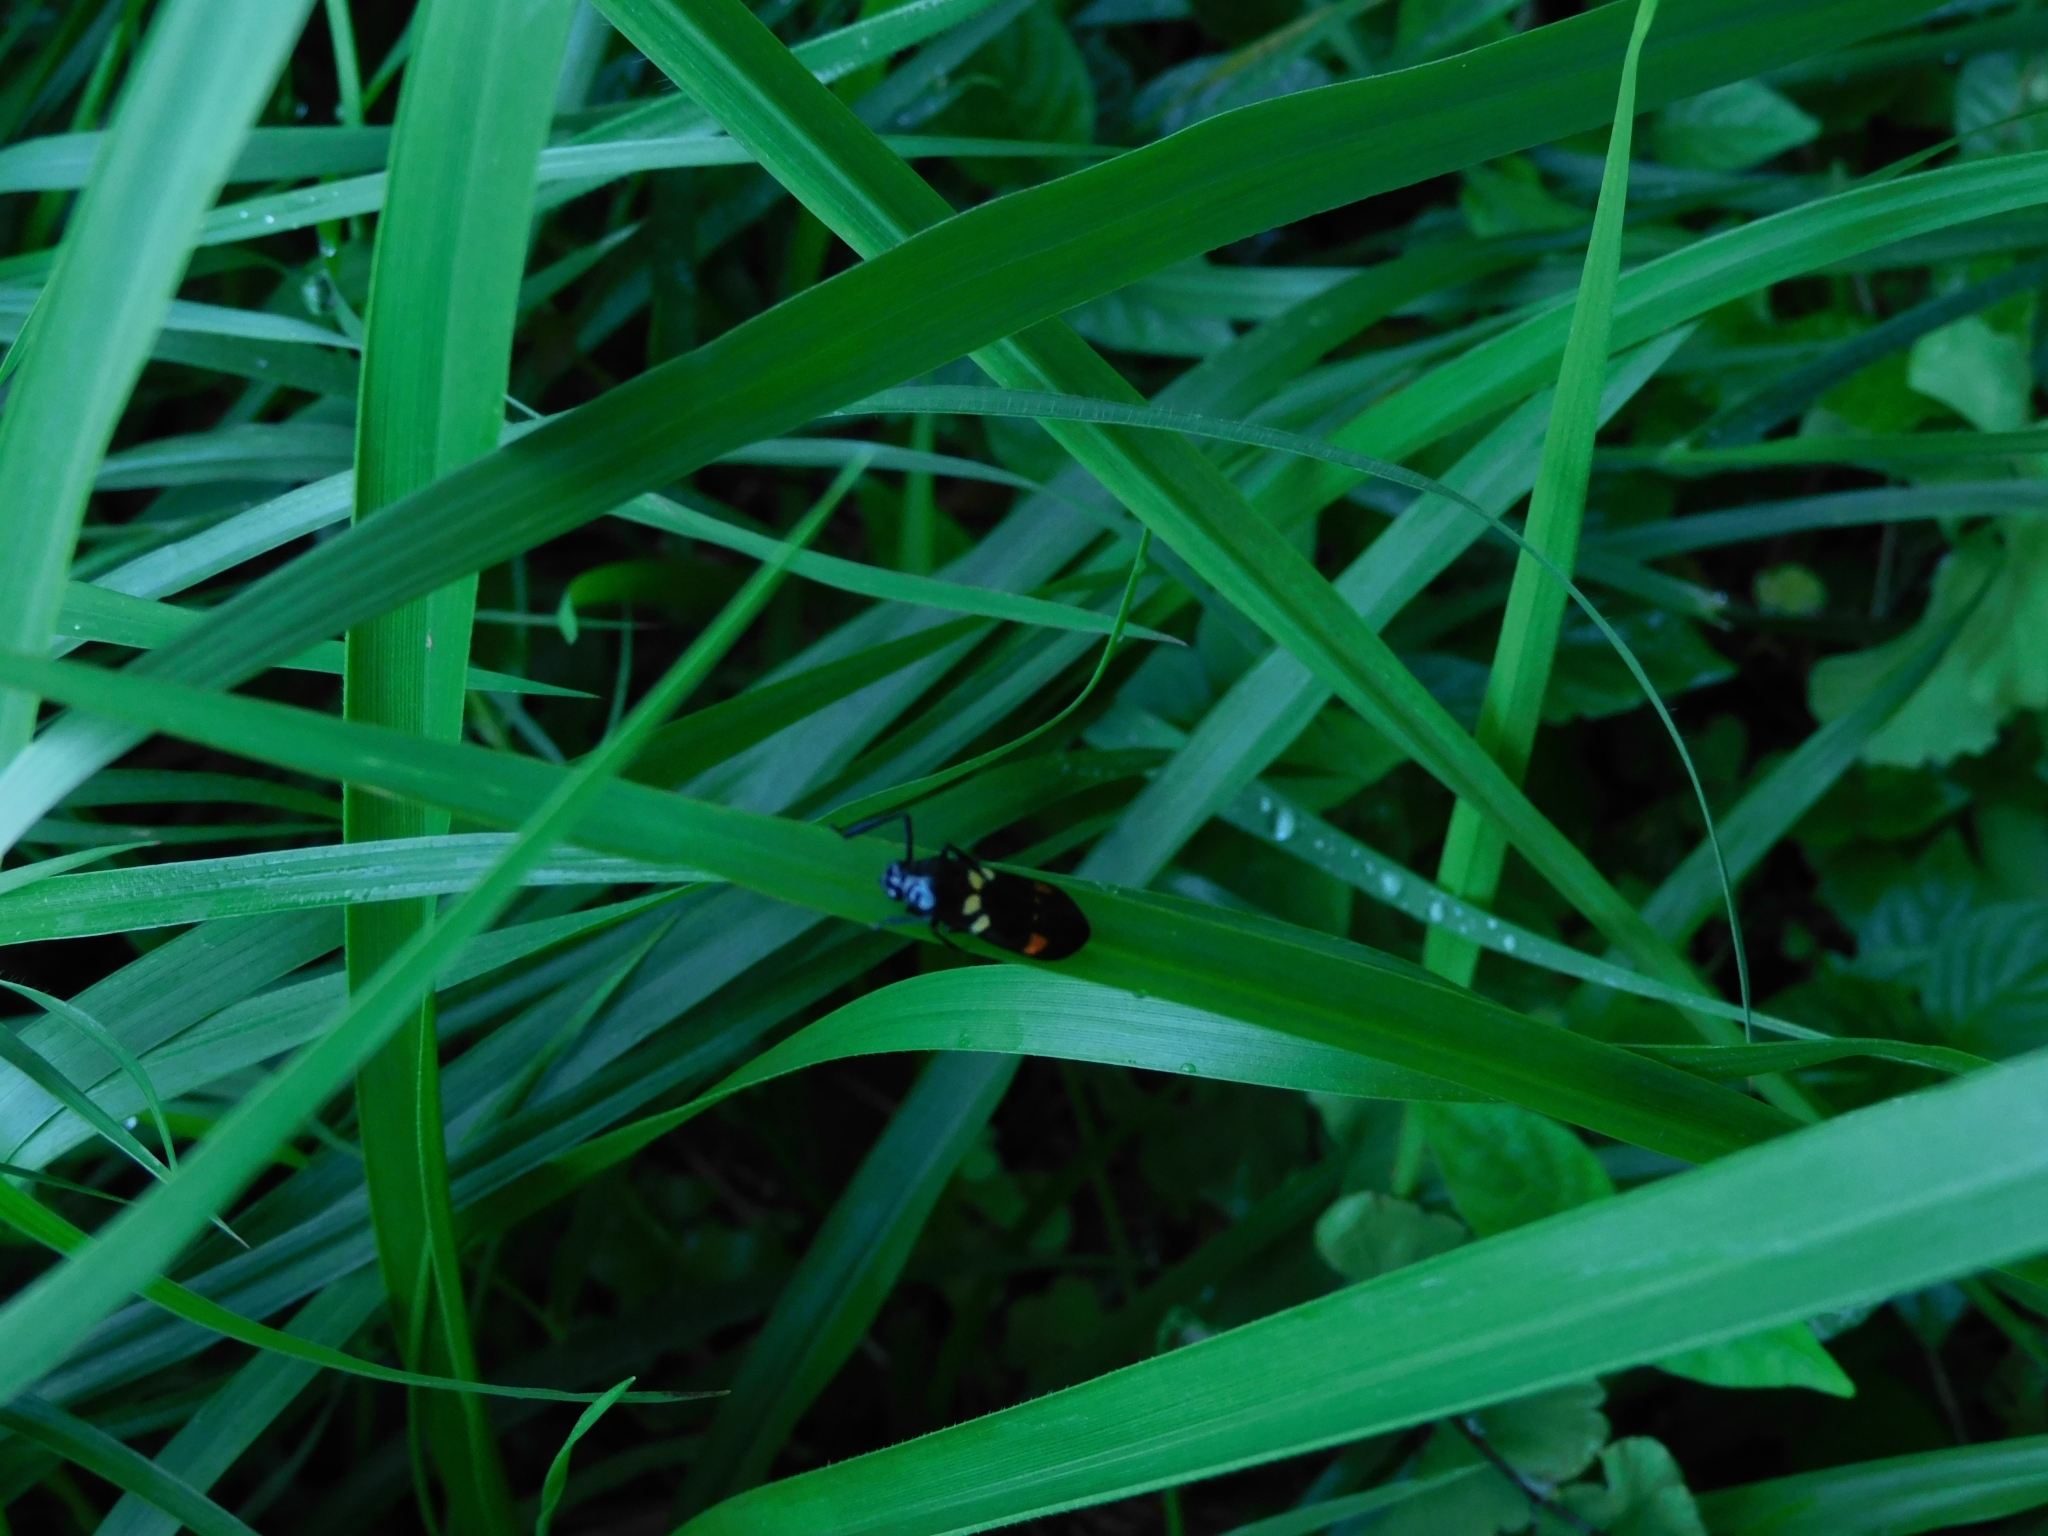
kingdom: Animalia
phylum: Arthropoda
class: Insecta
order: Hemiptera
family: Cercopidae
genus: Callitettix
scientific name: Callitettix versicolor
